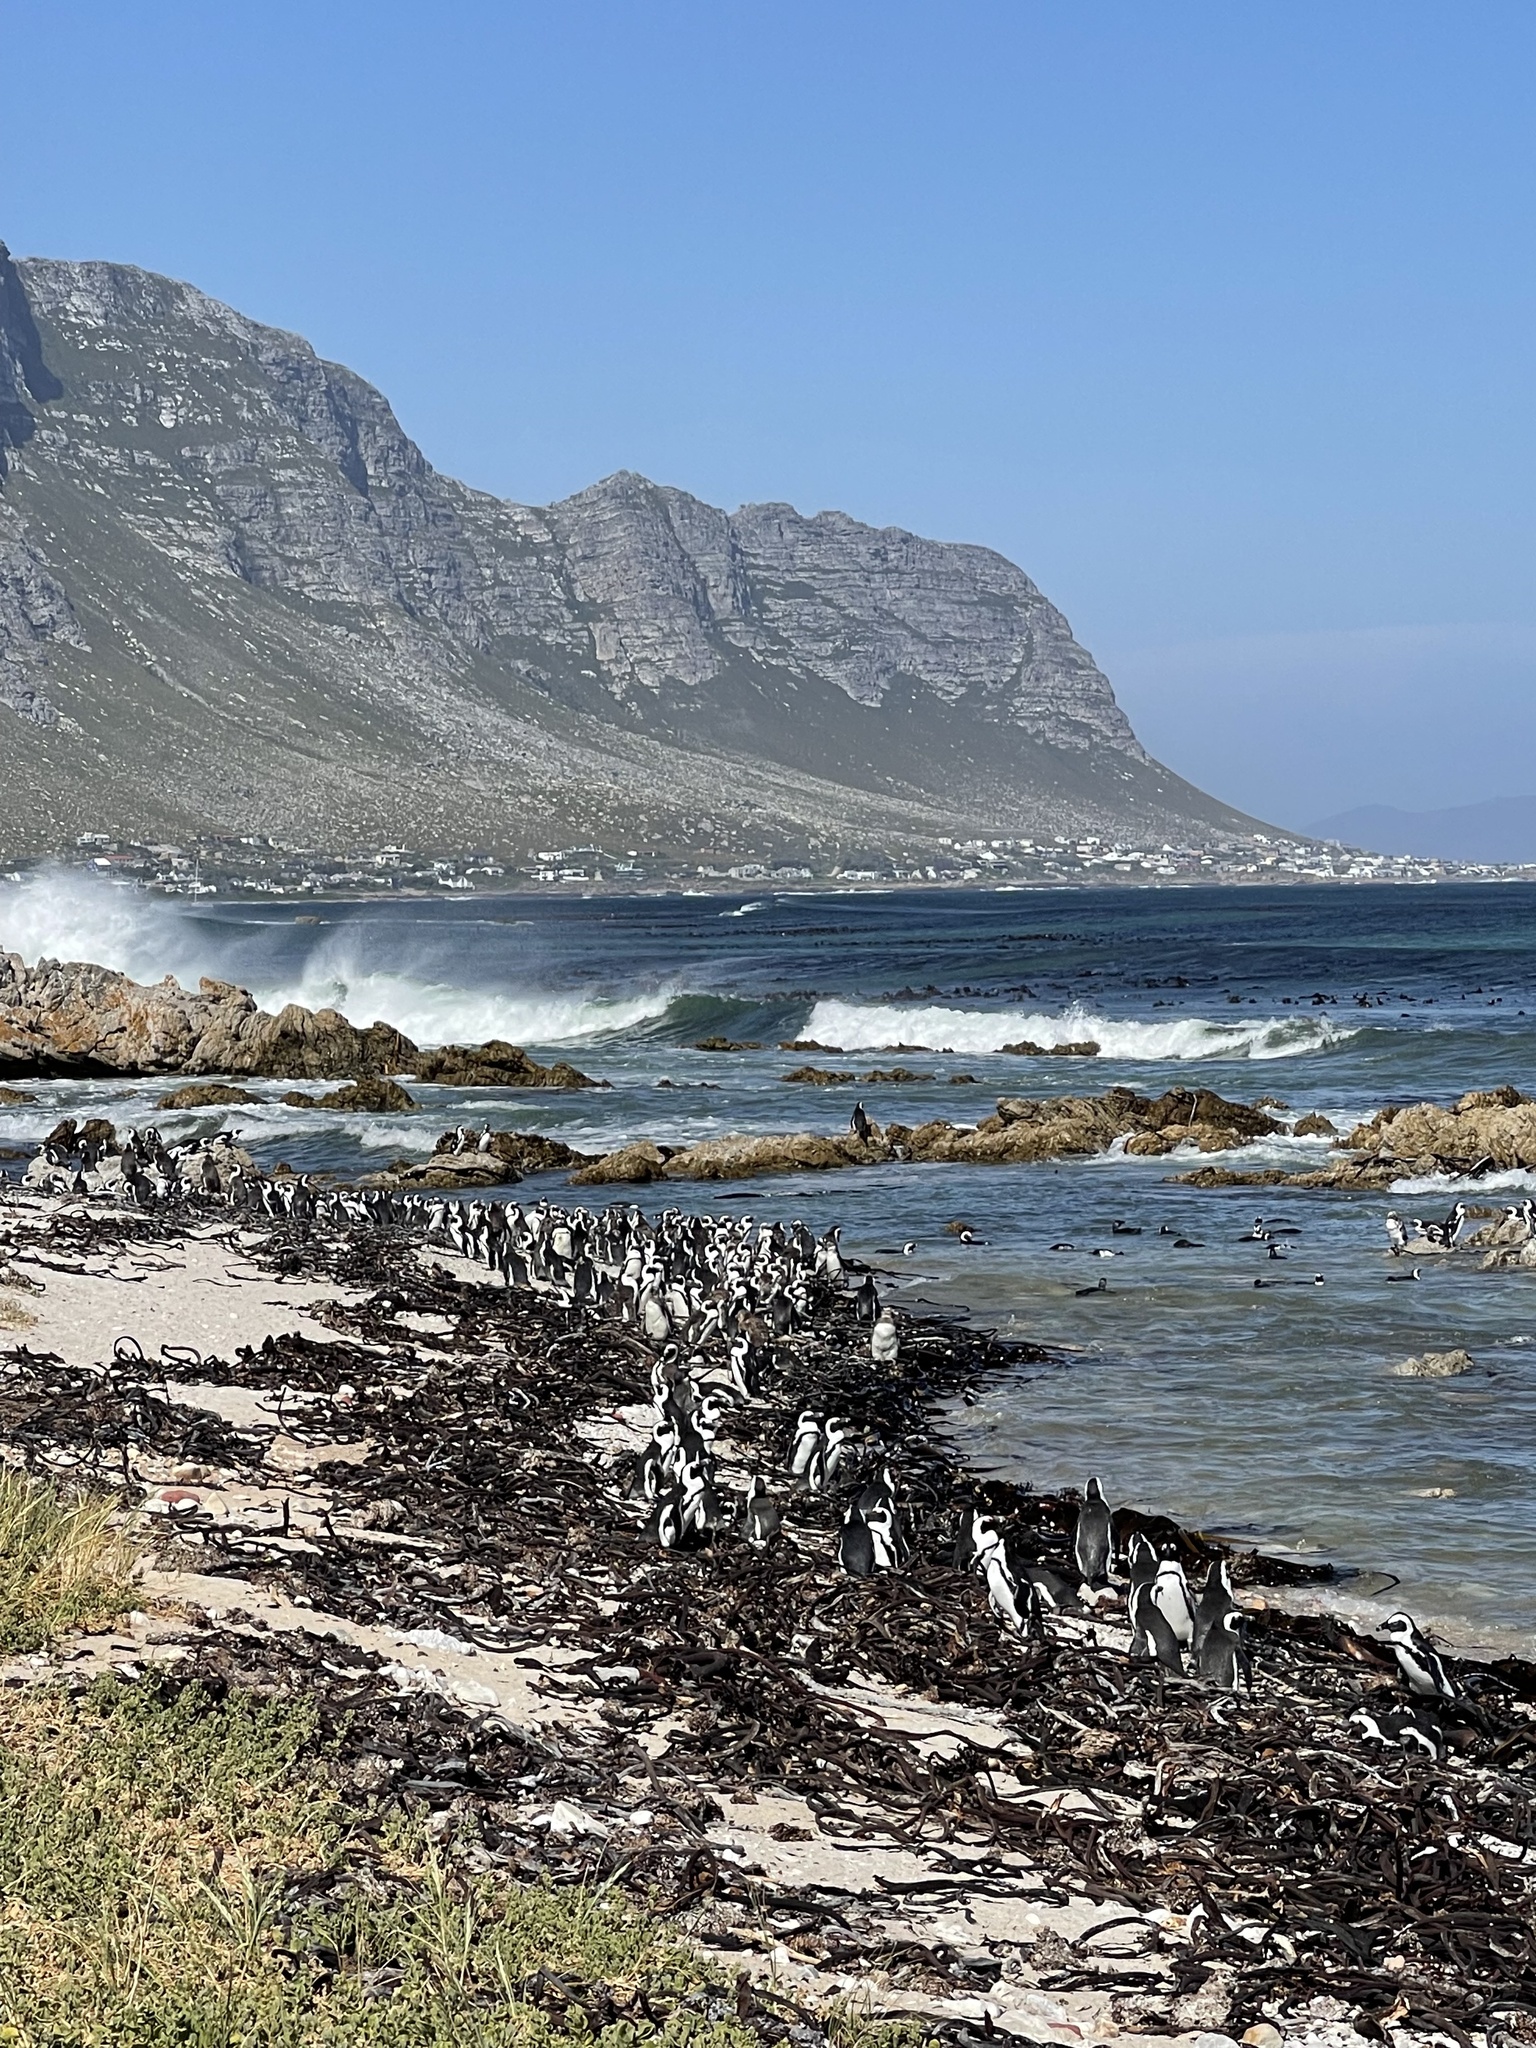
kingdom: Animalia
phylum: Chordata
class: Aves
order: Sphenisciformes
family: Spheniscidae
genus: Spheniscus
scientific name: Spheniscus demersus
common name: African penguin
